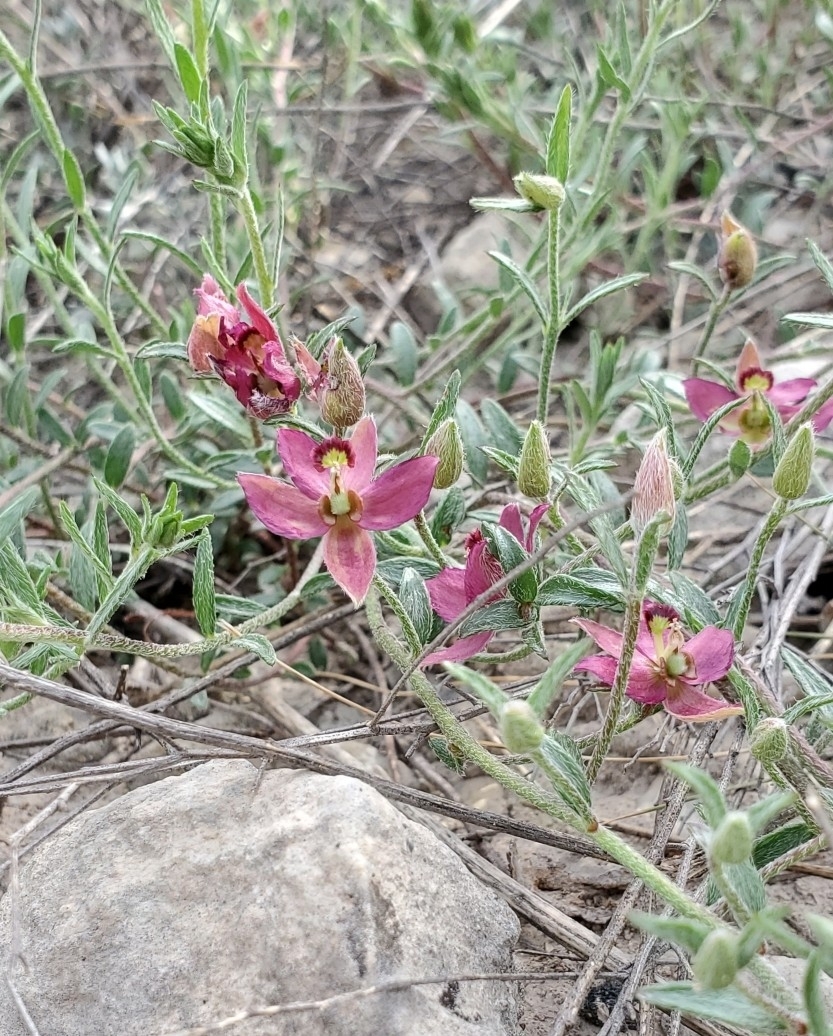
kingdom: Plantae
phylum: Tracheophyta
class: Magnoliopsida
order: Zygophyllales
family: Krameriaceae
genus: Krameria
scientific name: Krameria lanceolata
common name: Ratany
